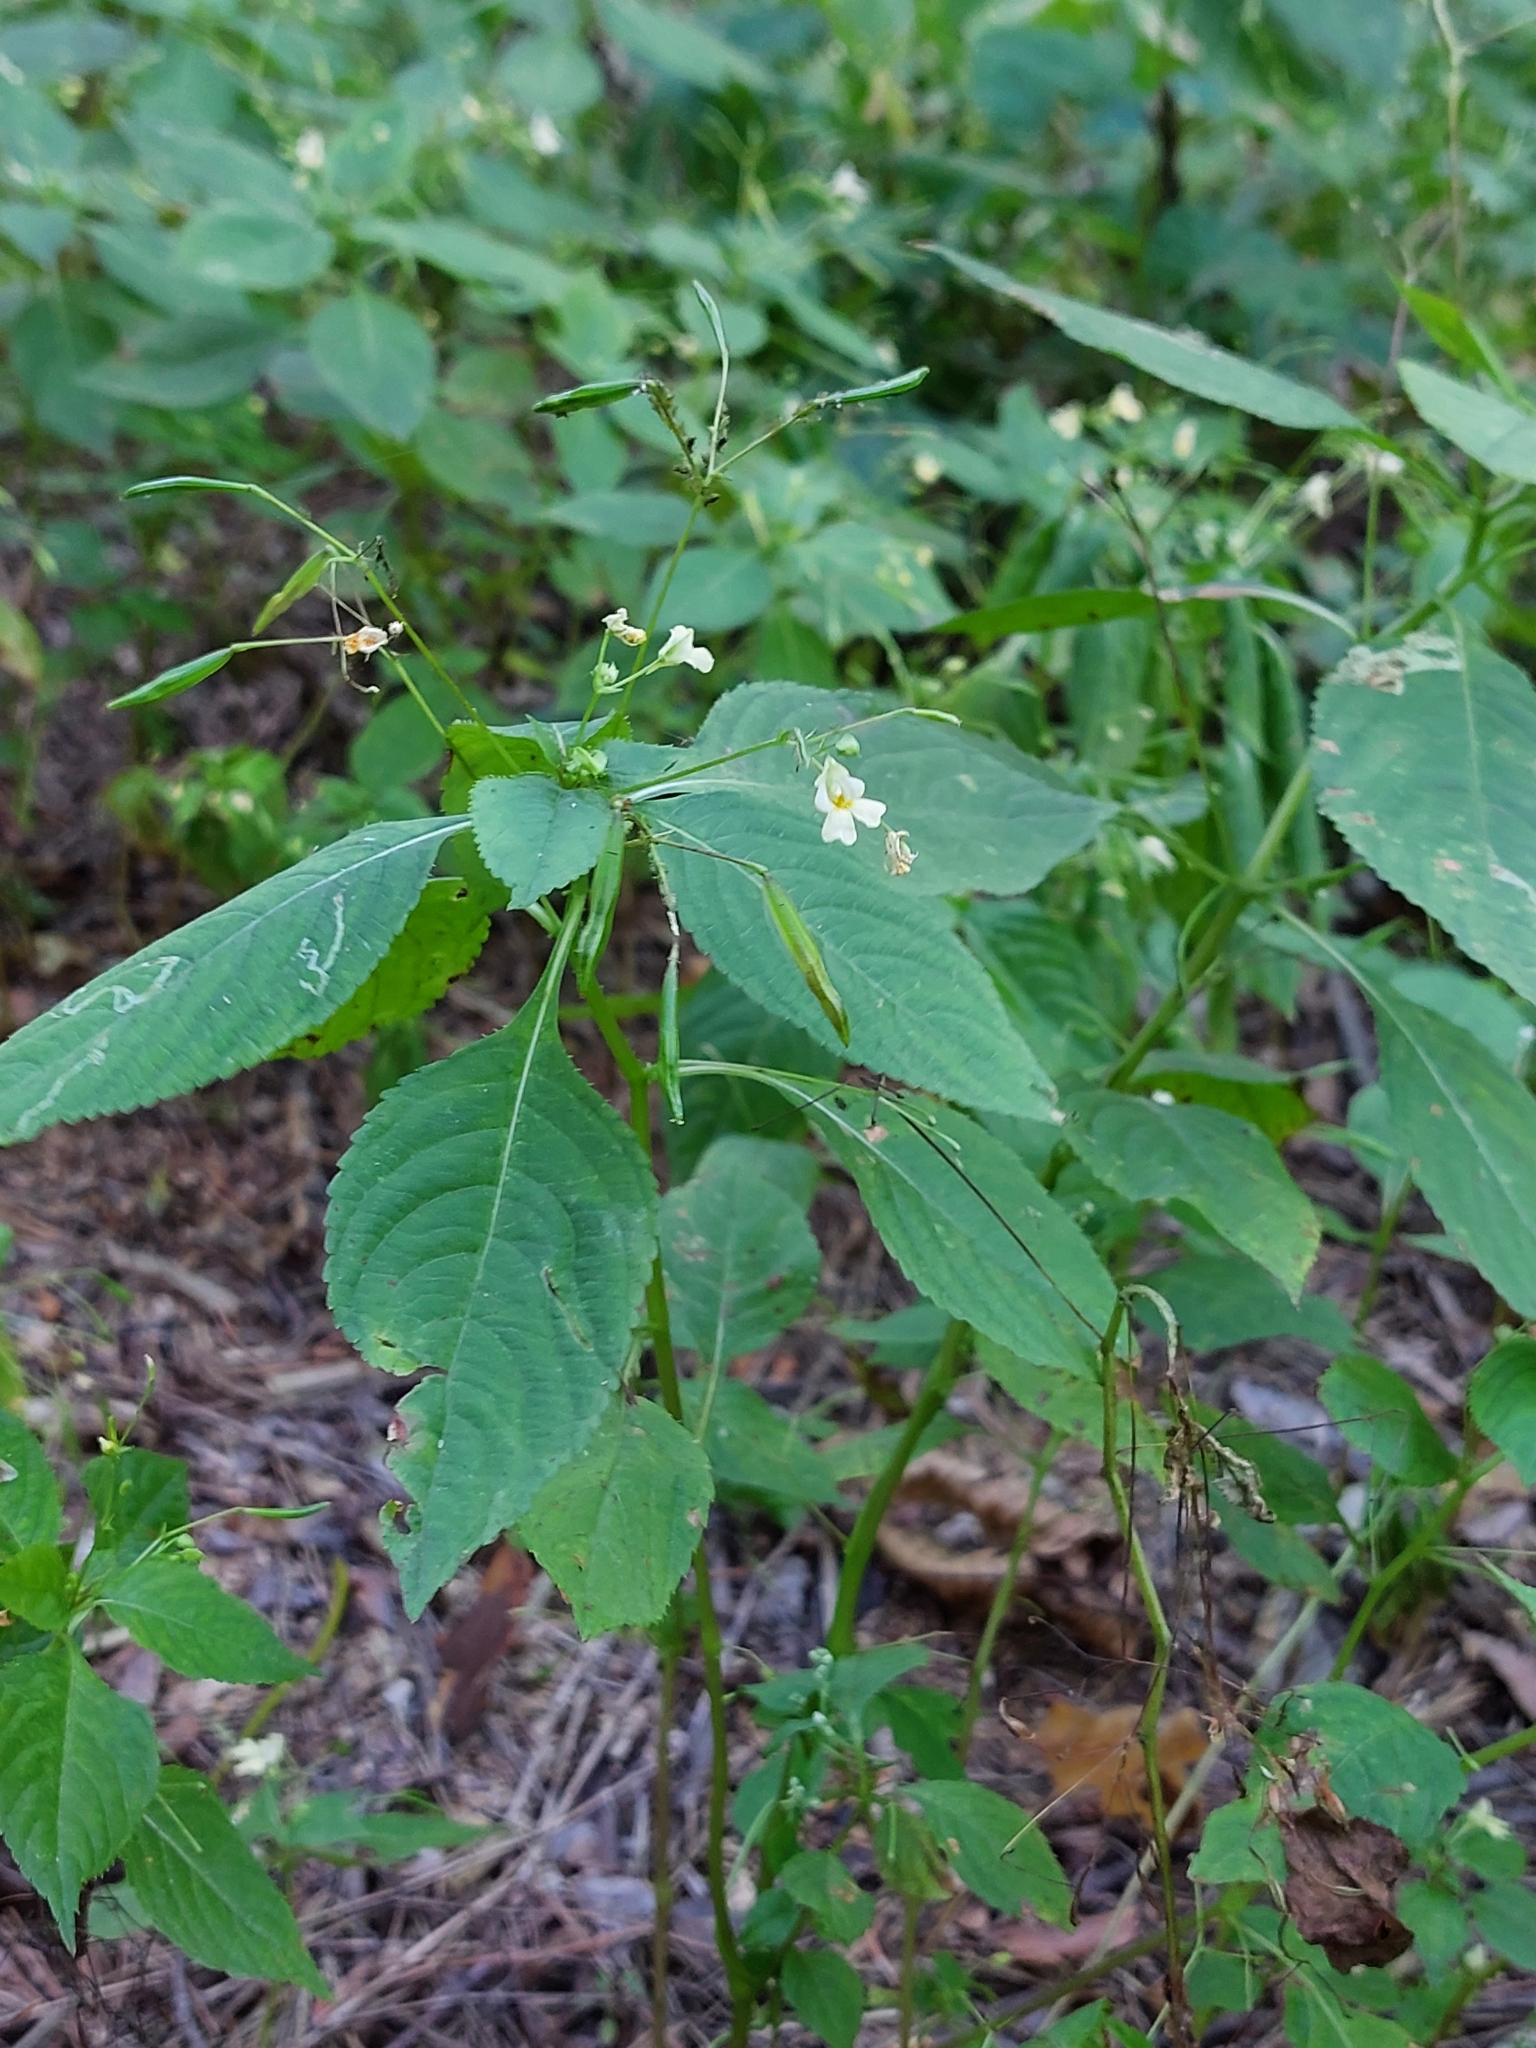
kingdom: Plantae
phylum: Tracheophyta
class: Magnoliopsida
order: Ericales
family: Balsaminaceae
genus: Impatiens
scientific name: Impatiens parviflora
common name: Small balsam
